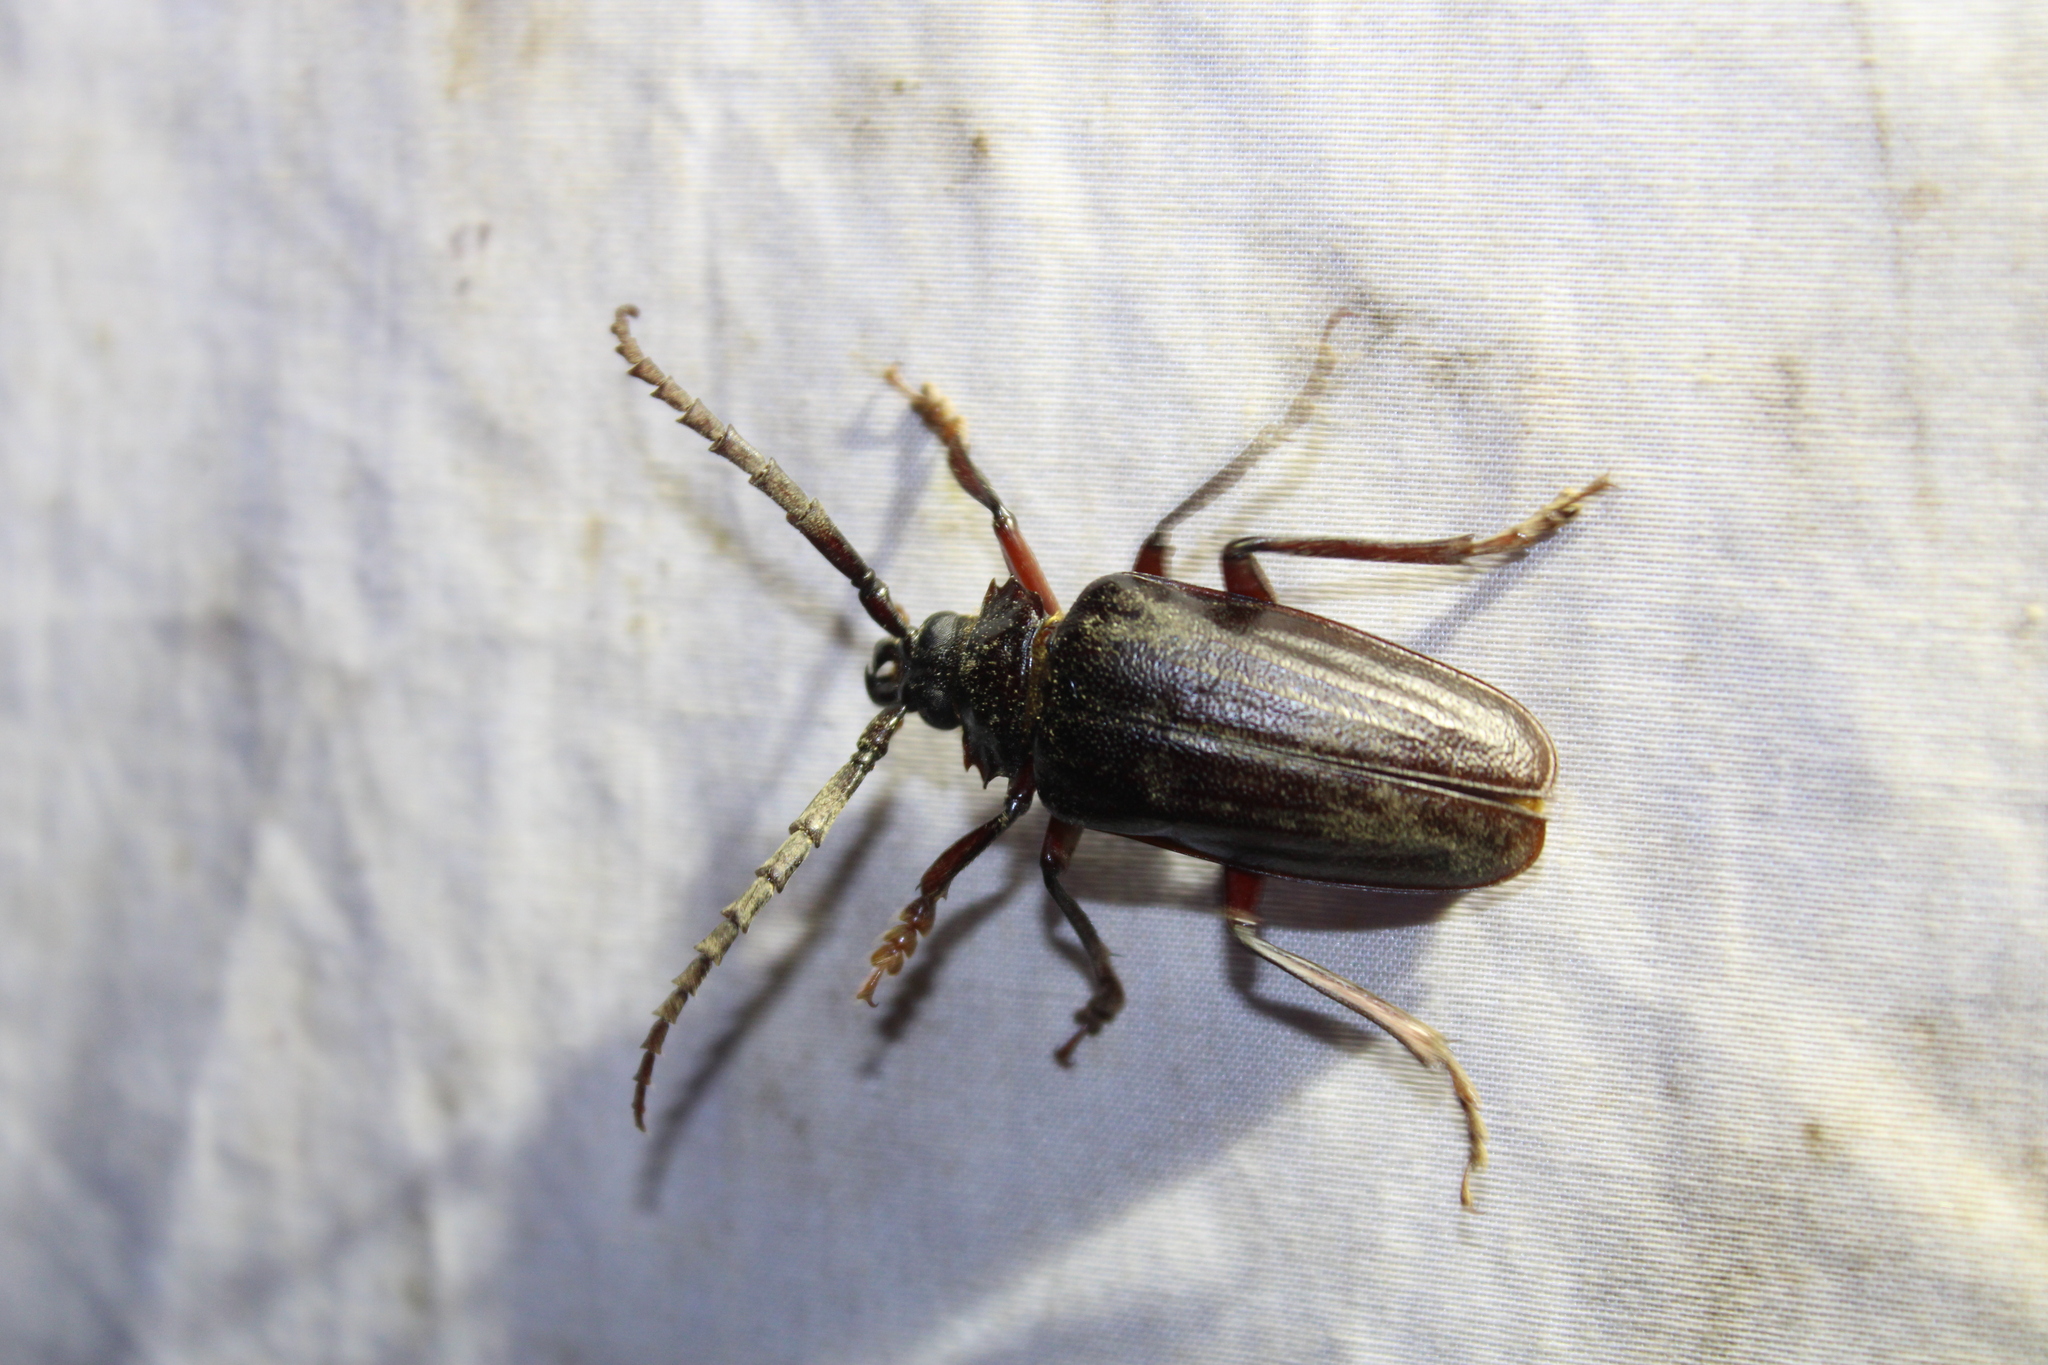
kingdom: Animalia
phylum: Arthropoda
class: Insecta
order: Coleoptera
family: Cerambycidae
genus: Prionus
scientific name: Prionus pocularis
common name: Tooth-necked longhorn beetle
